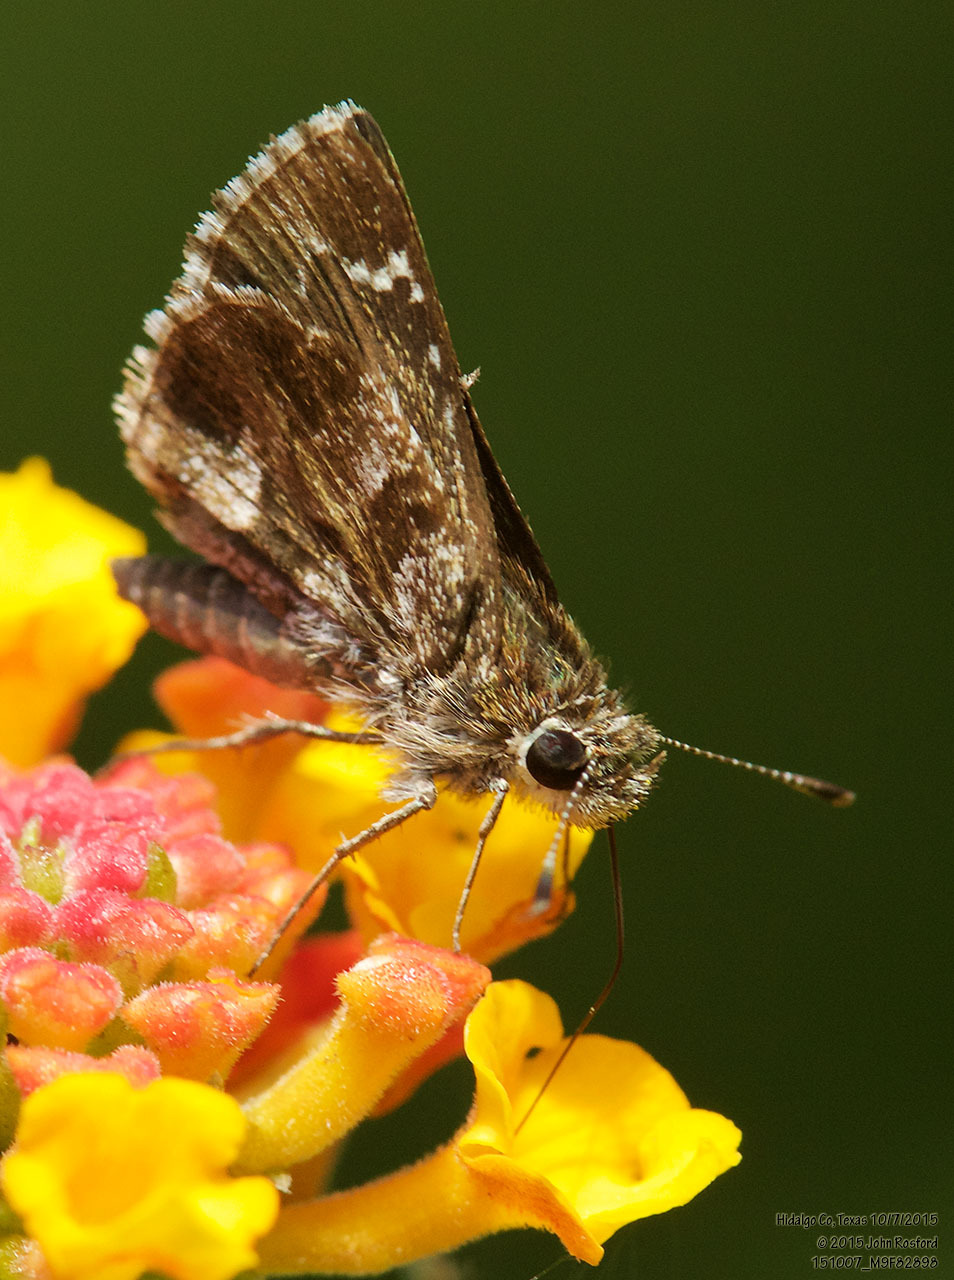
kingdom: Animalia
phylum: Arthropoda
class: Insecta
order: Lepidoptera
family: Hesperiidae
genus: Mastor
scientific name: Mastor nysa
